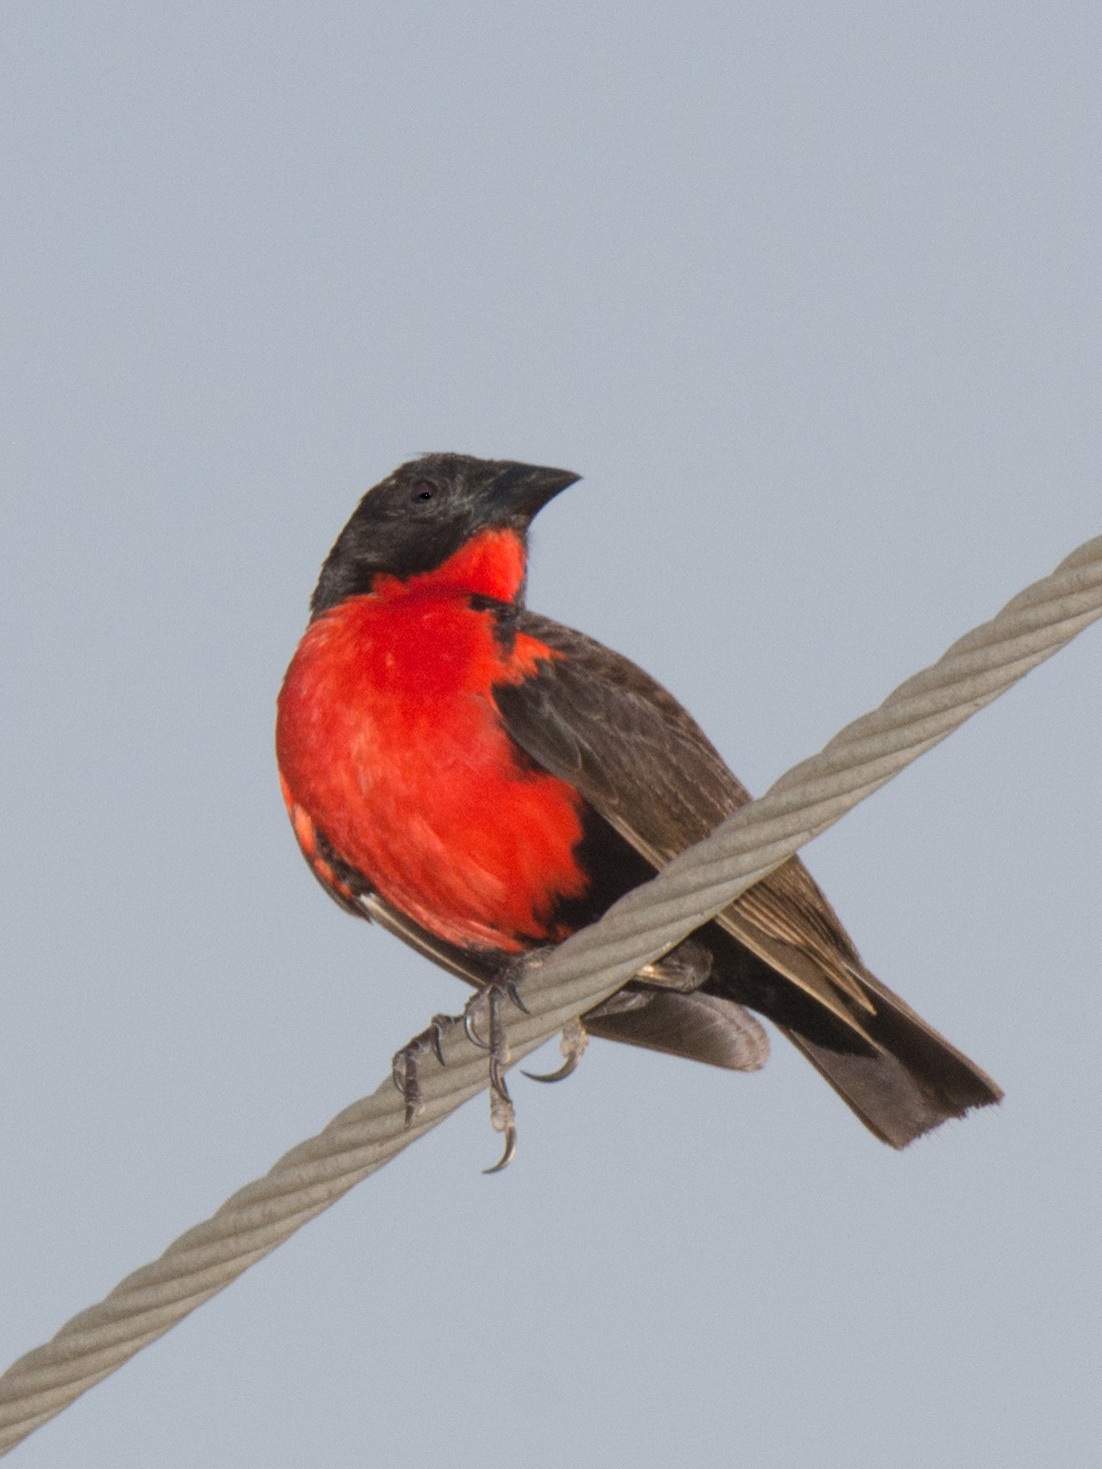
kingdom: Animalia
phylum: Chordata
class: Aves
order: Passeriformes
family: Icteridae
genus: Sturnella
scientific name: Sturnella militaris
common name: Red-breasted blackbird
